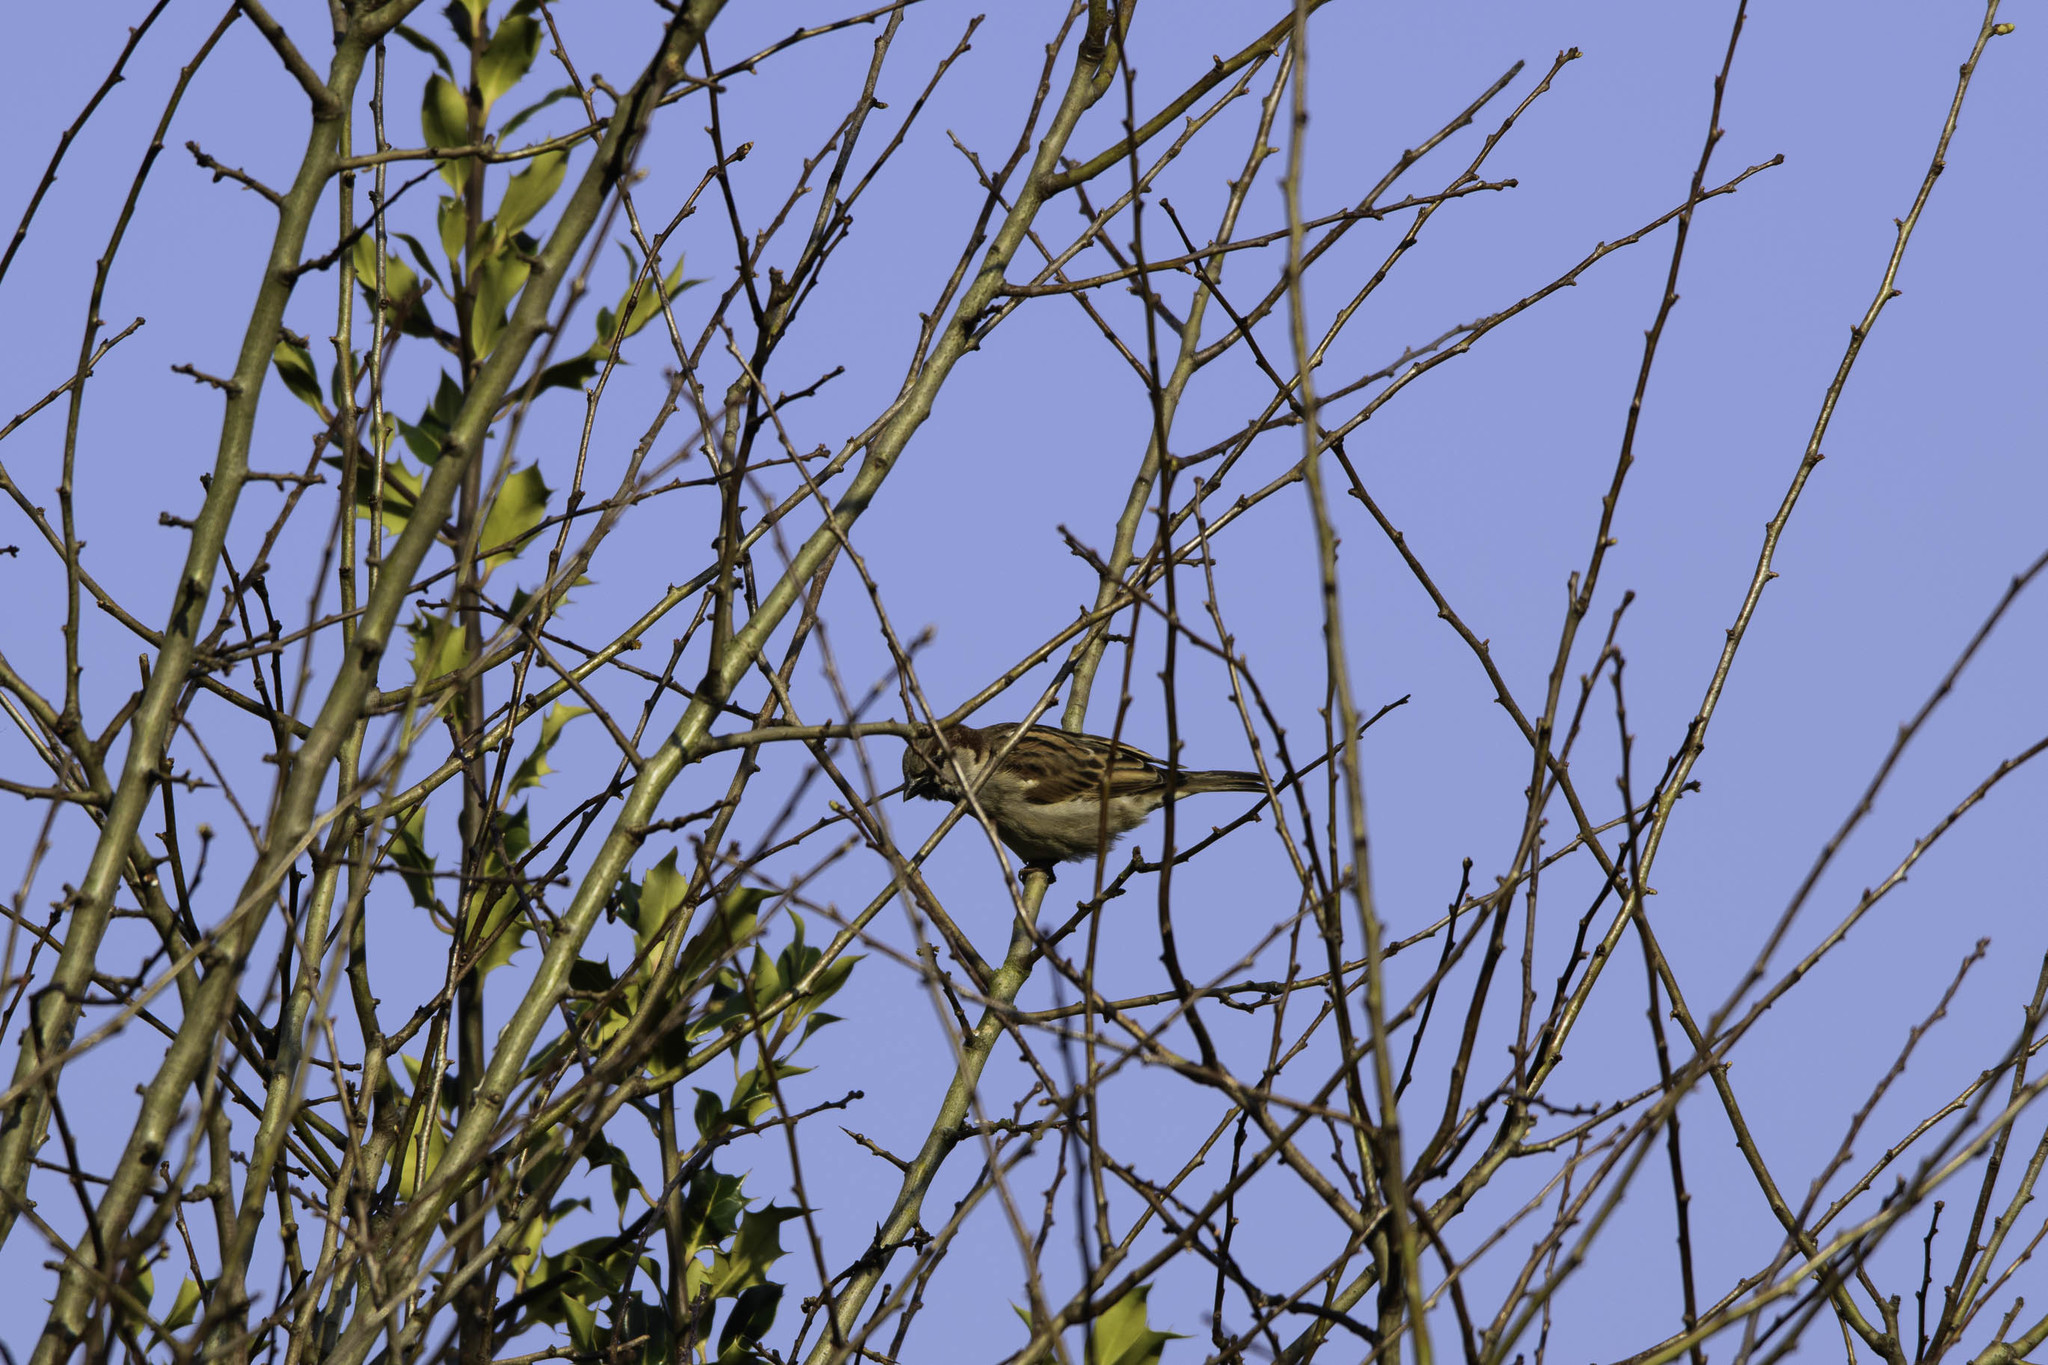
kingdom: Animalia
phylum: Chordata
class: Aves
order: Passeriformes
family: Passeridae
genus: Passer
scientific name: Passer domesticus
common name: House sparrow
